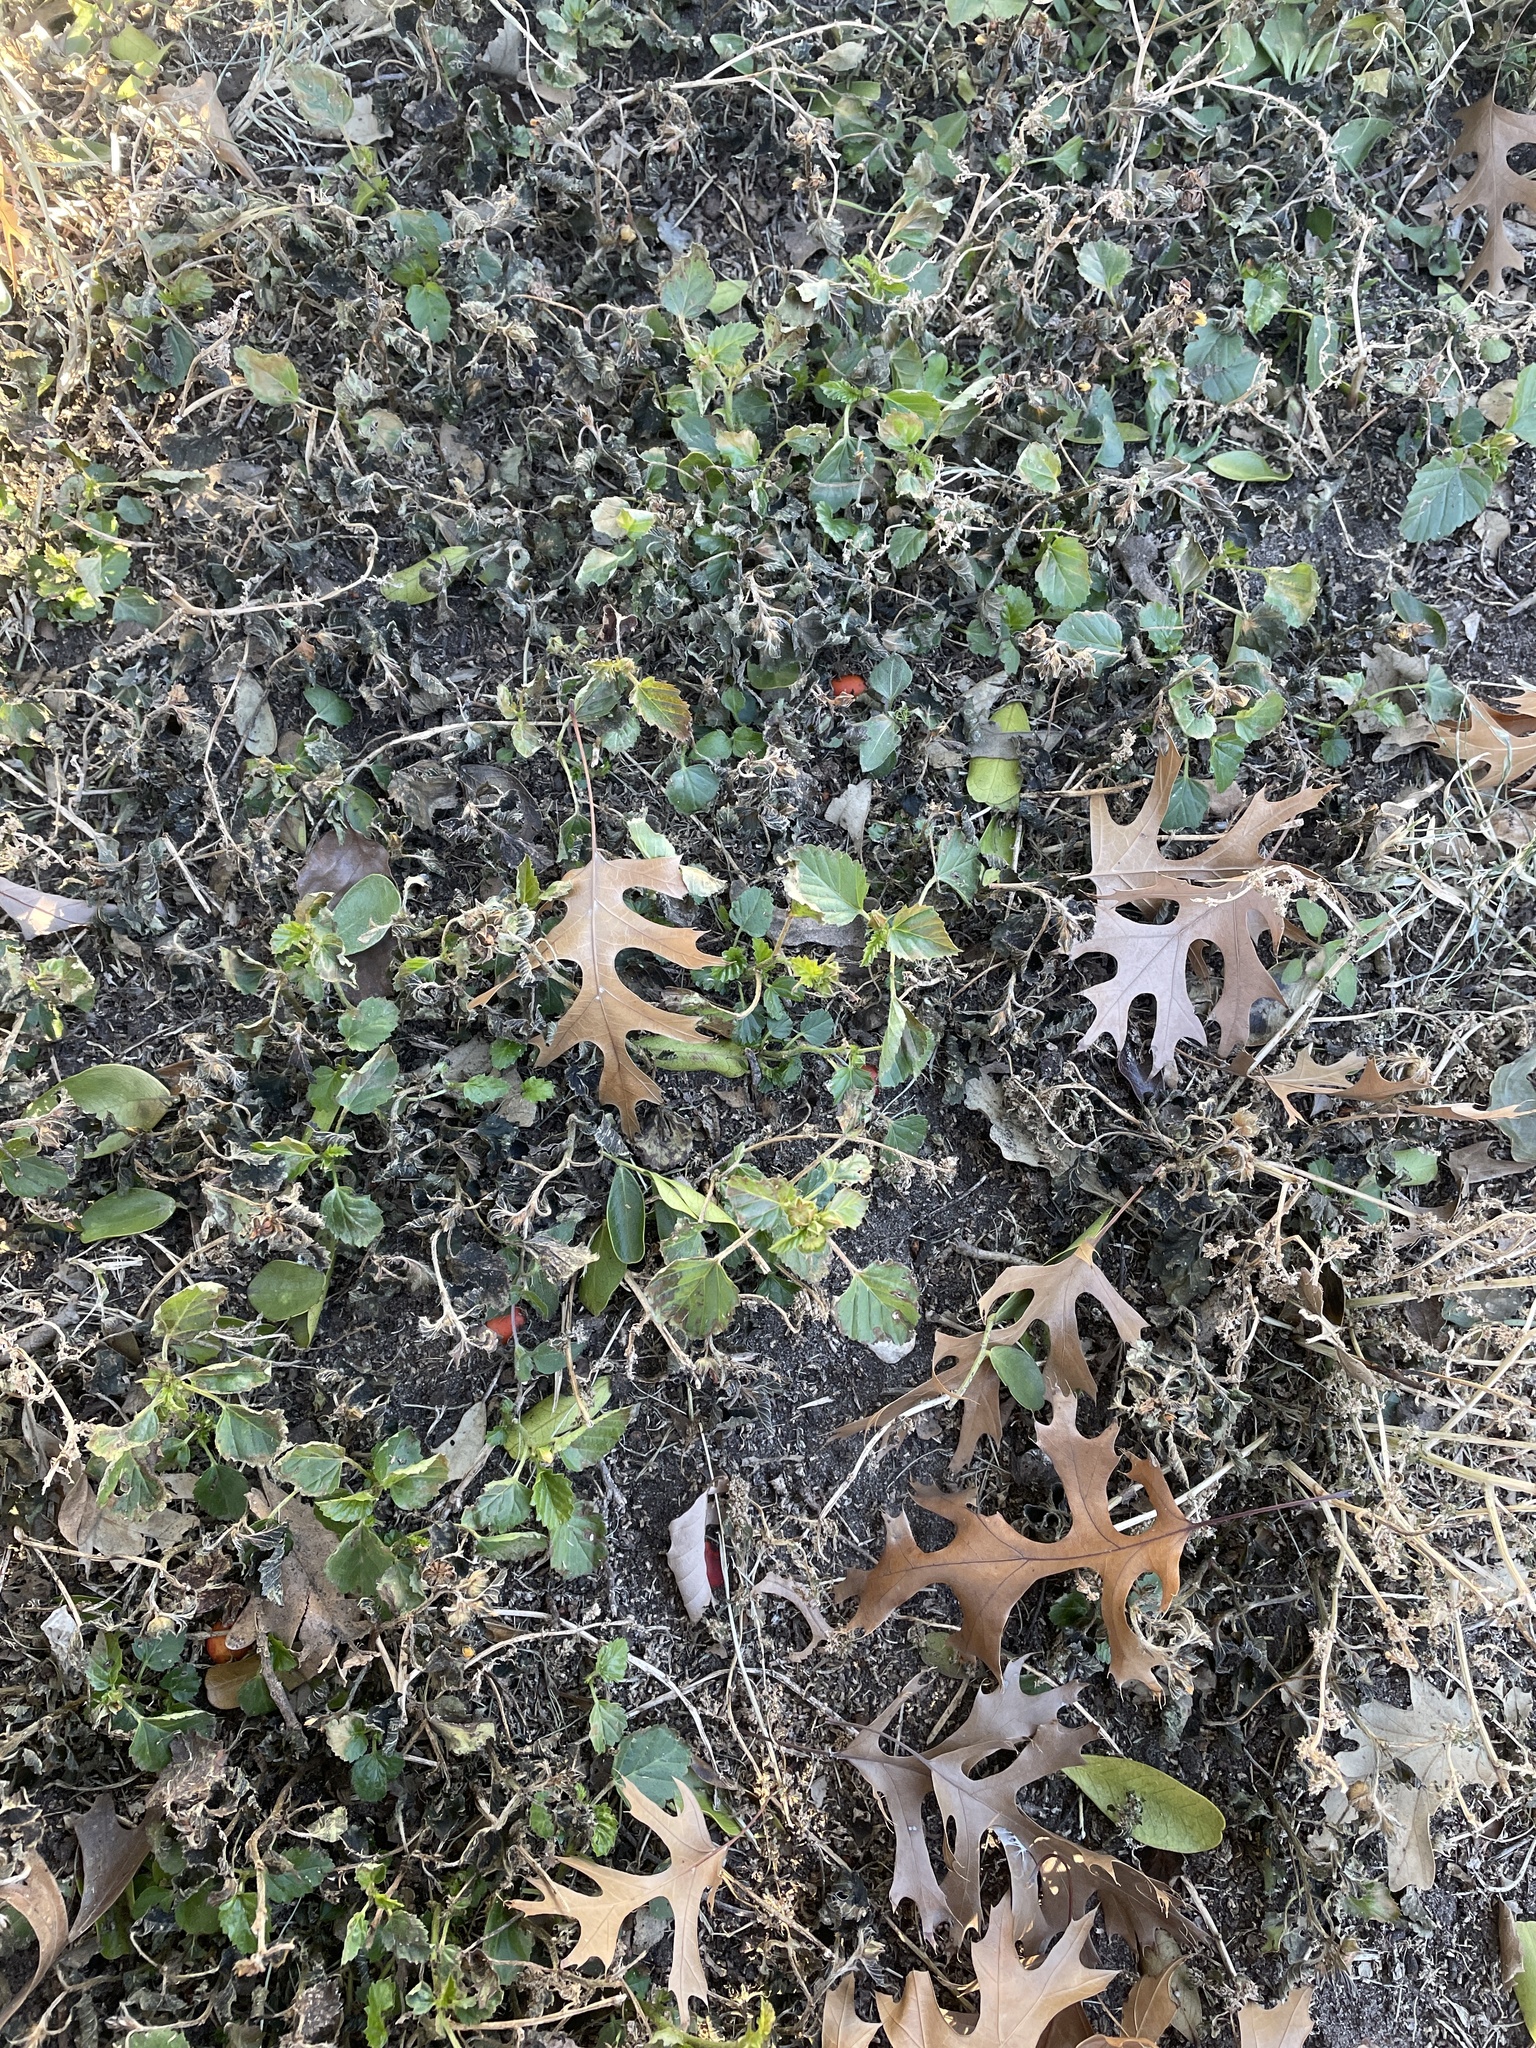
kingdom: Plantae
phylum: Tracheophyta
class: Magnoliopsida
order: Malvales
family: Malvaceae
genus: Malvastrum
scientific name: Malvastrum coromandelianum
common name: Threelobe false mallow
